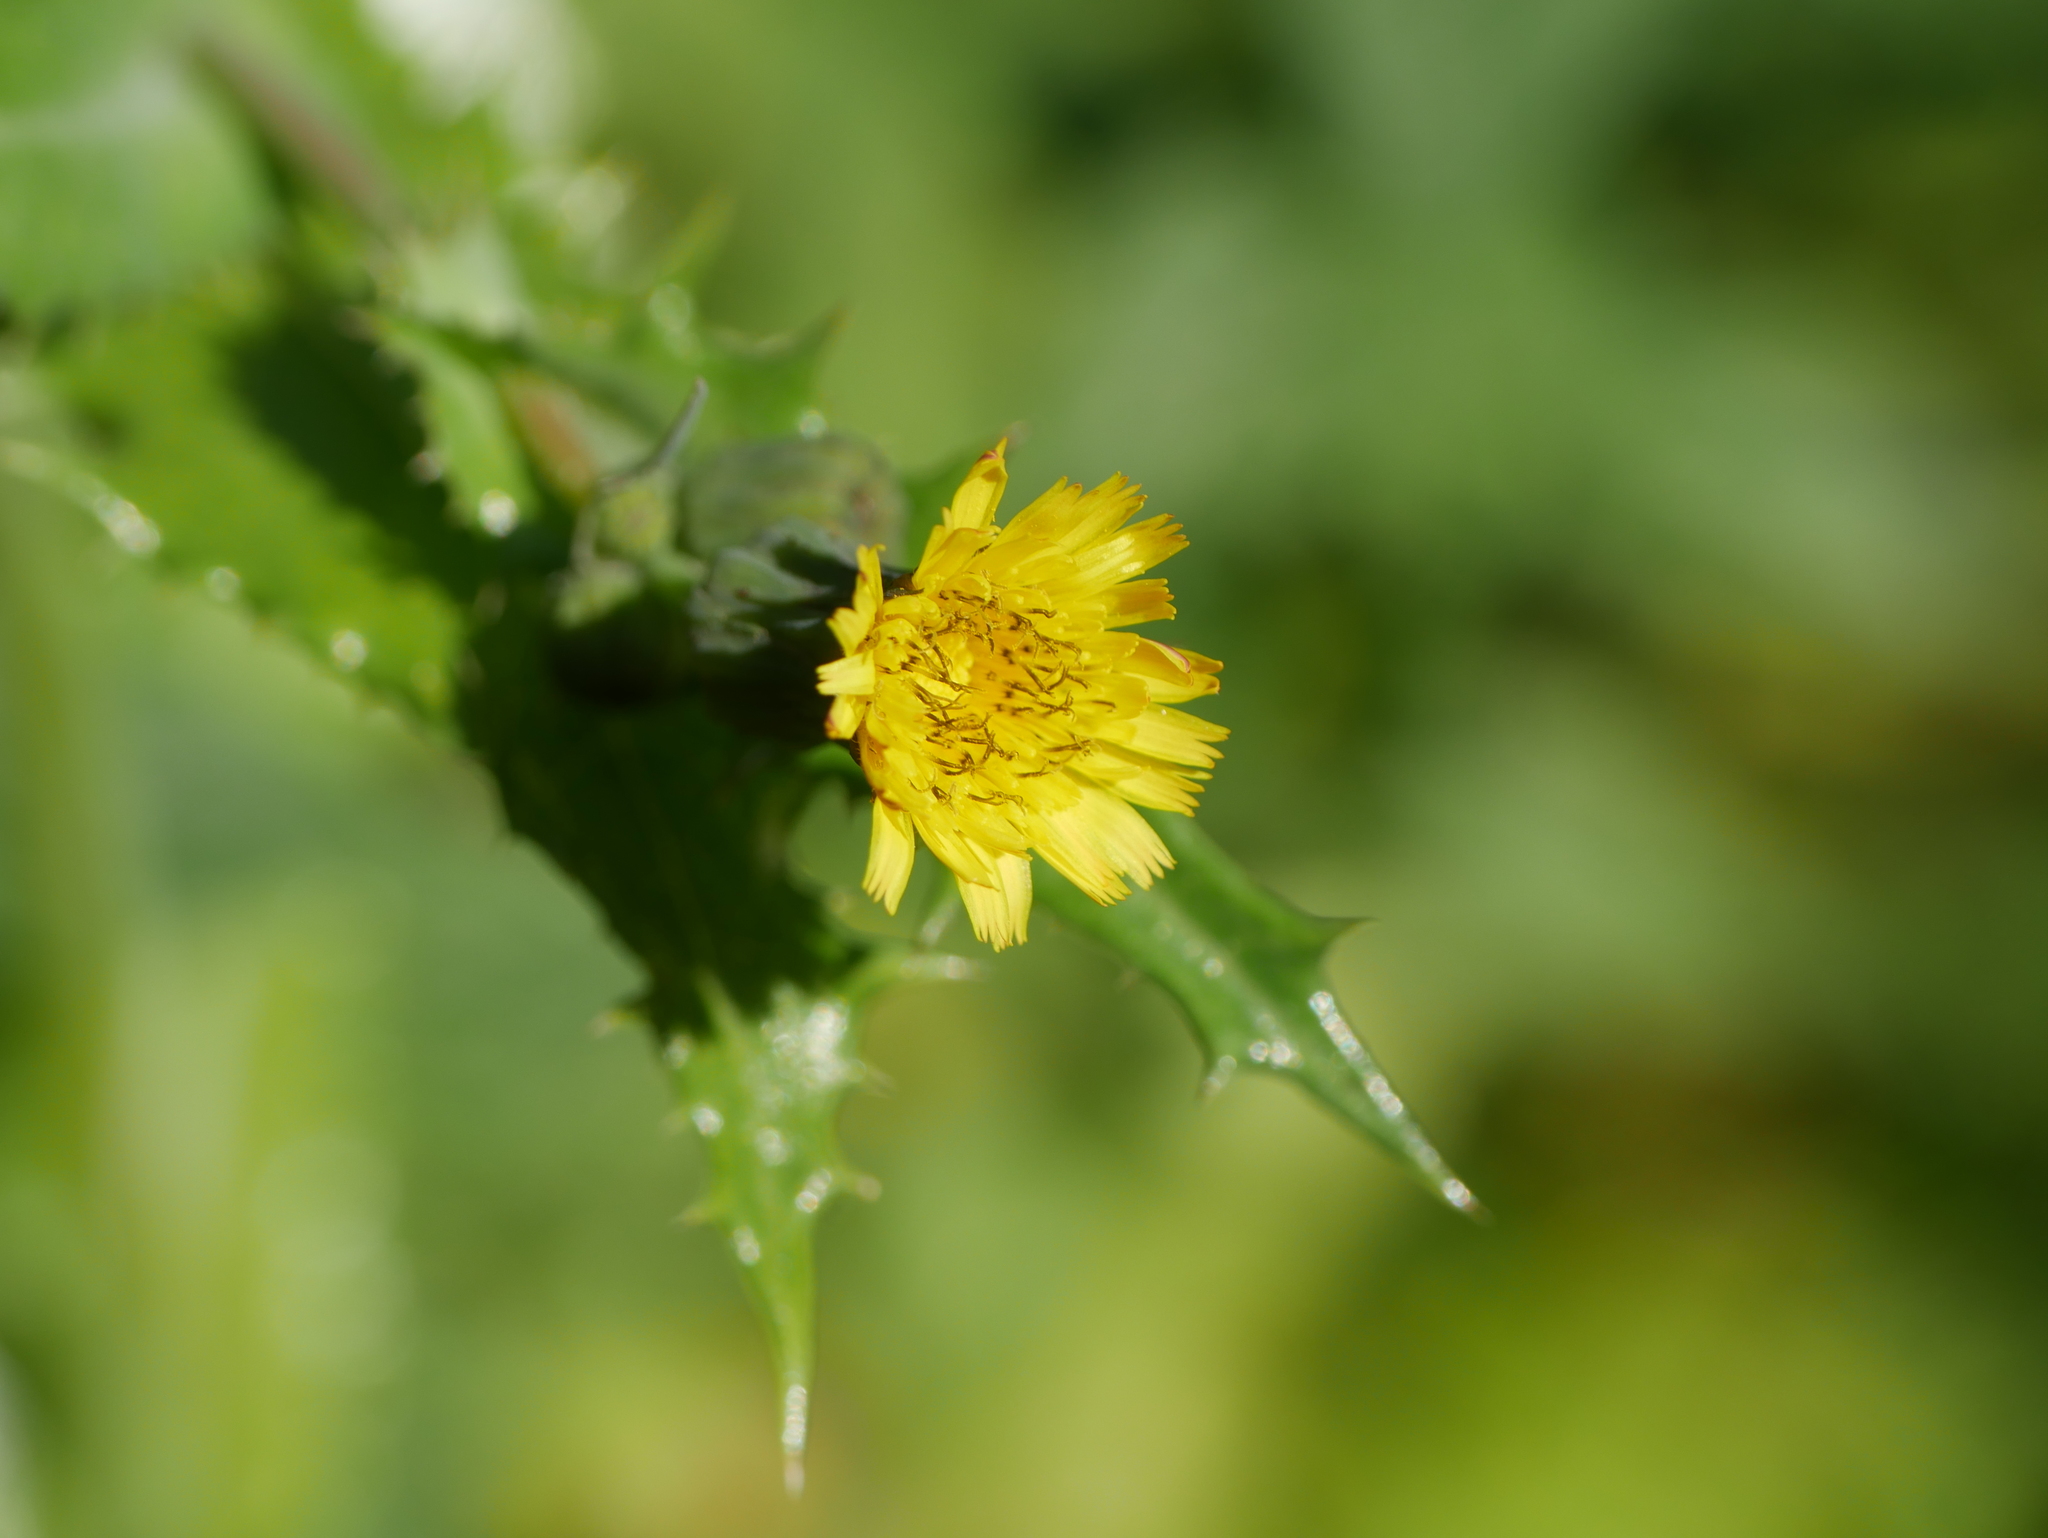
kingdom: Plantae
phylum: Tracheophyta
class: Magnoliopsida
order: Asterales
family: Asteraceae
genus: Sonchus
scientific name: Sonchus asper
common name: Prickly sow-thistle
